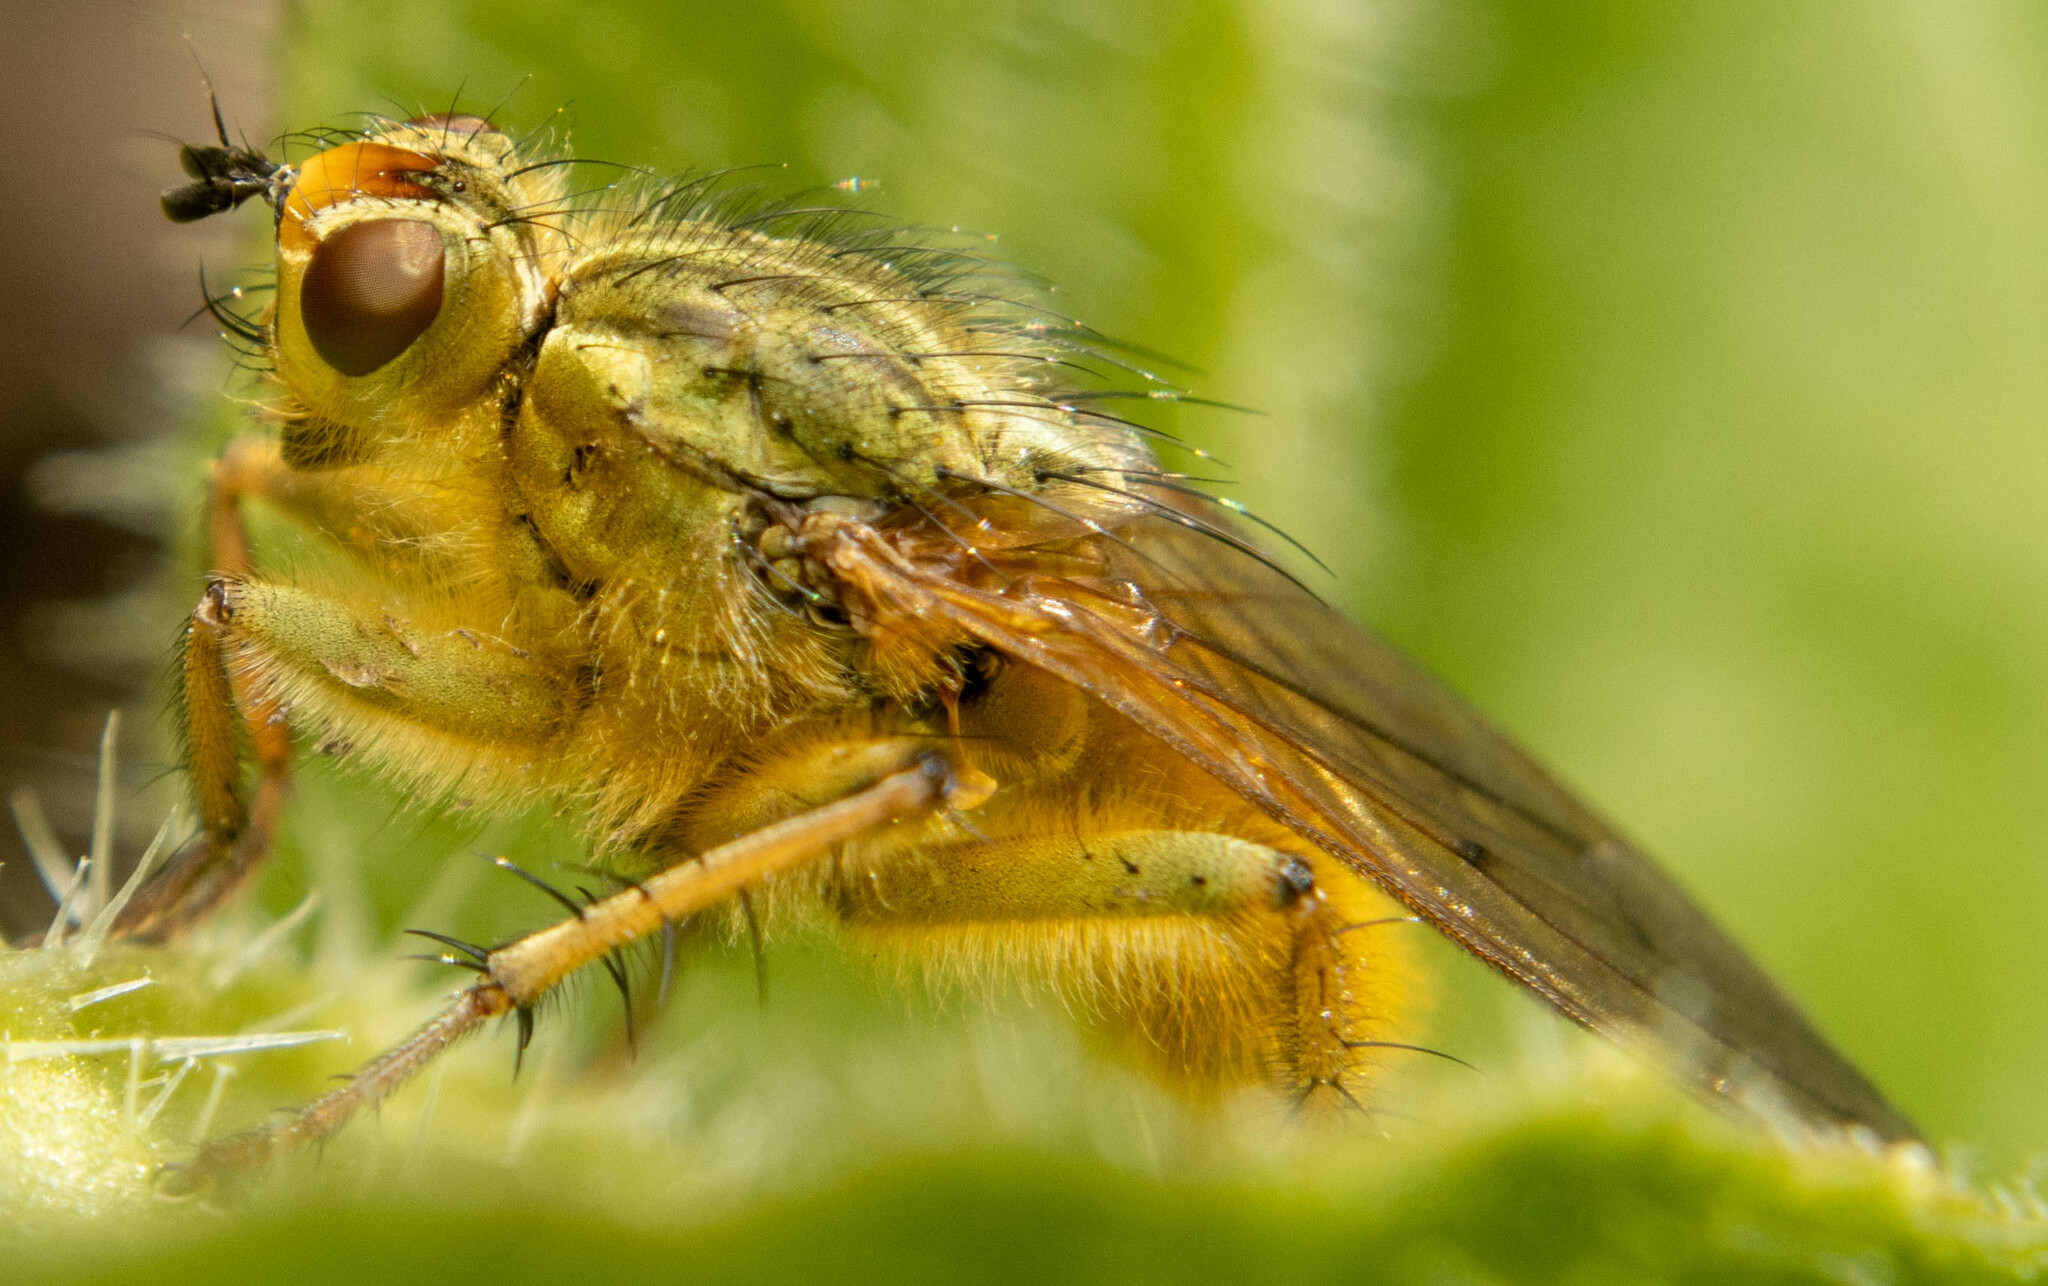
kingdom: Animalia
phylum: Arthropoda
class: Insecta
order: Diptera
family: Scathophagidae
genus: Scathophaga
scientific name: Scathophaga stercoraria
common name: Yellow dung fly
